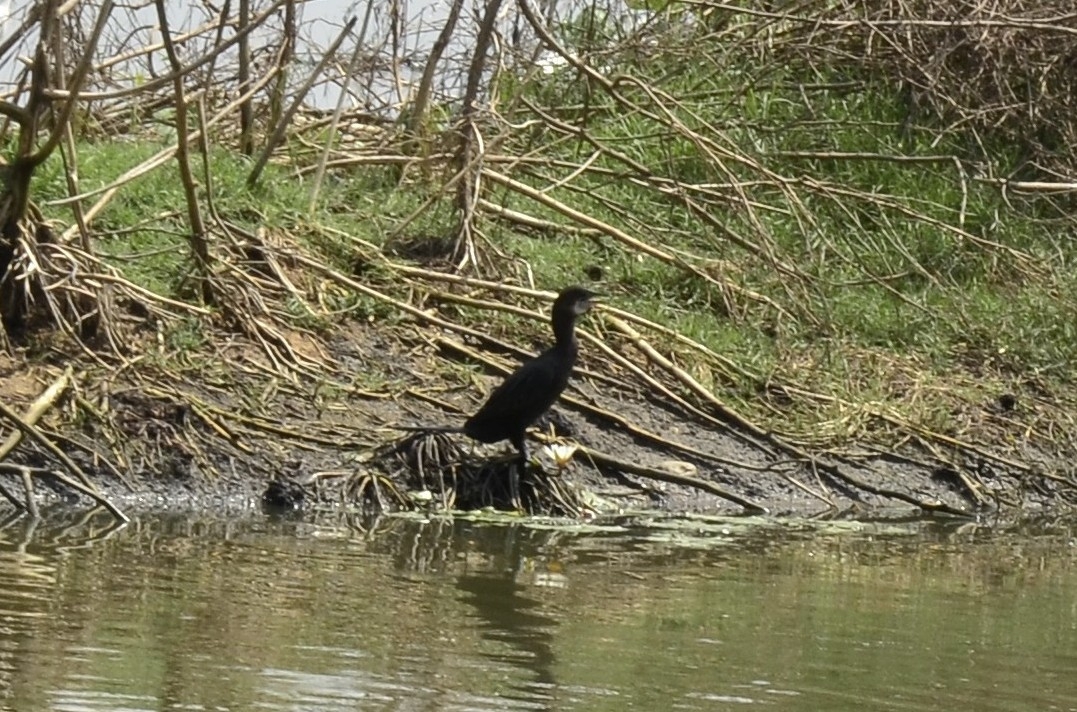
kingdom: Animalia
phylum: Chordata
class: Aves
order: Suliformes
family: Phalacrocoracidae
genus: Microcarbo
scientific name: Microcarbo niger
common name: Little cormorant
